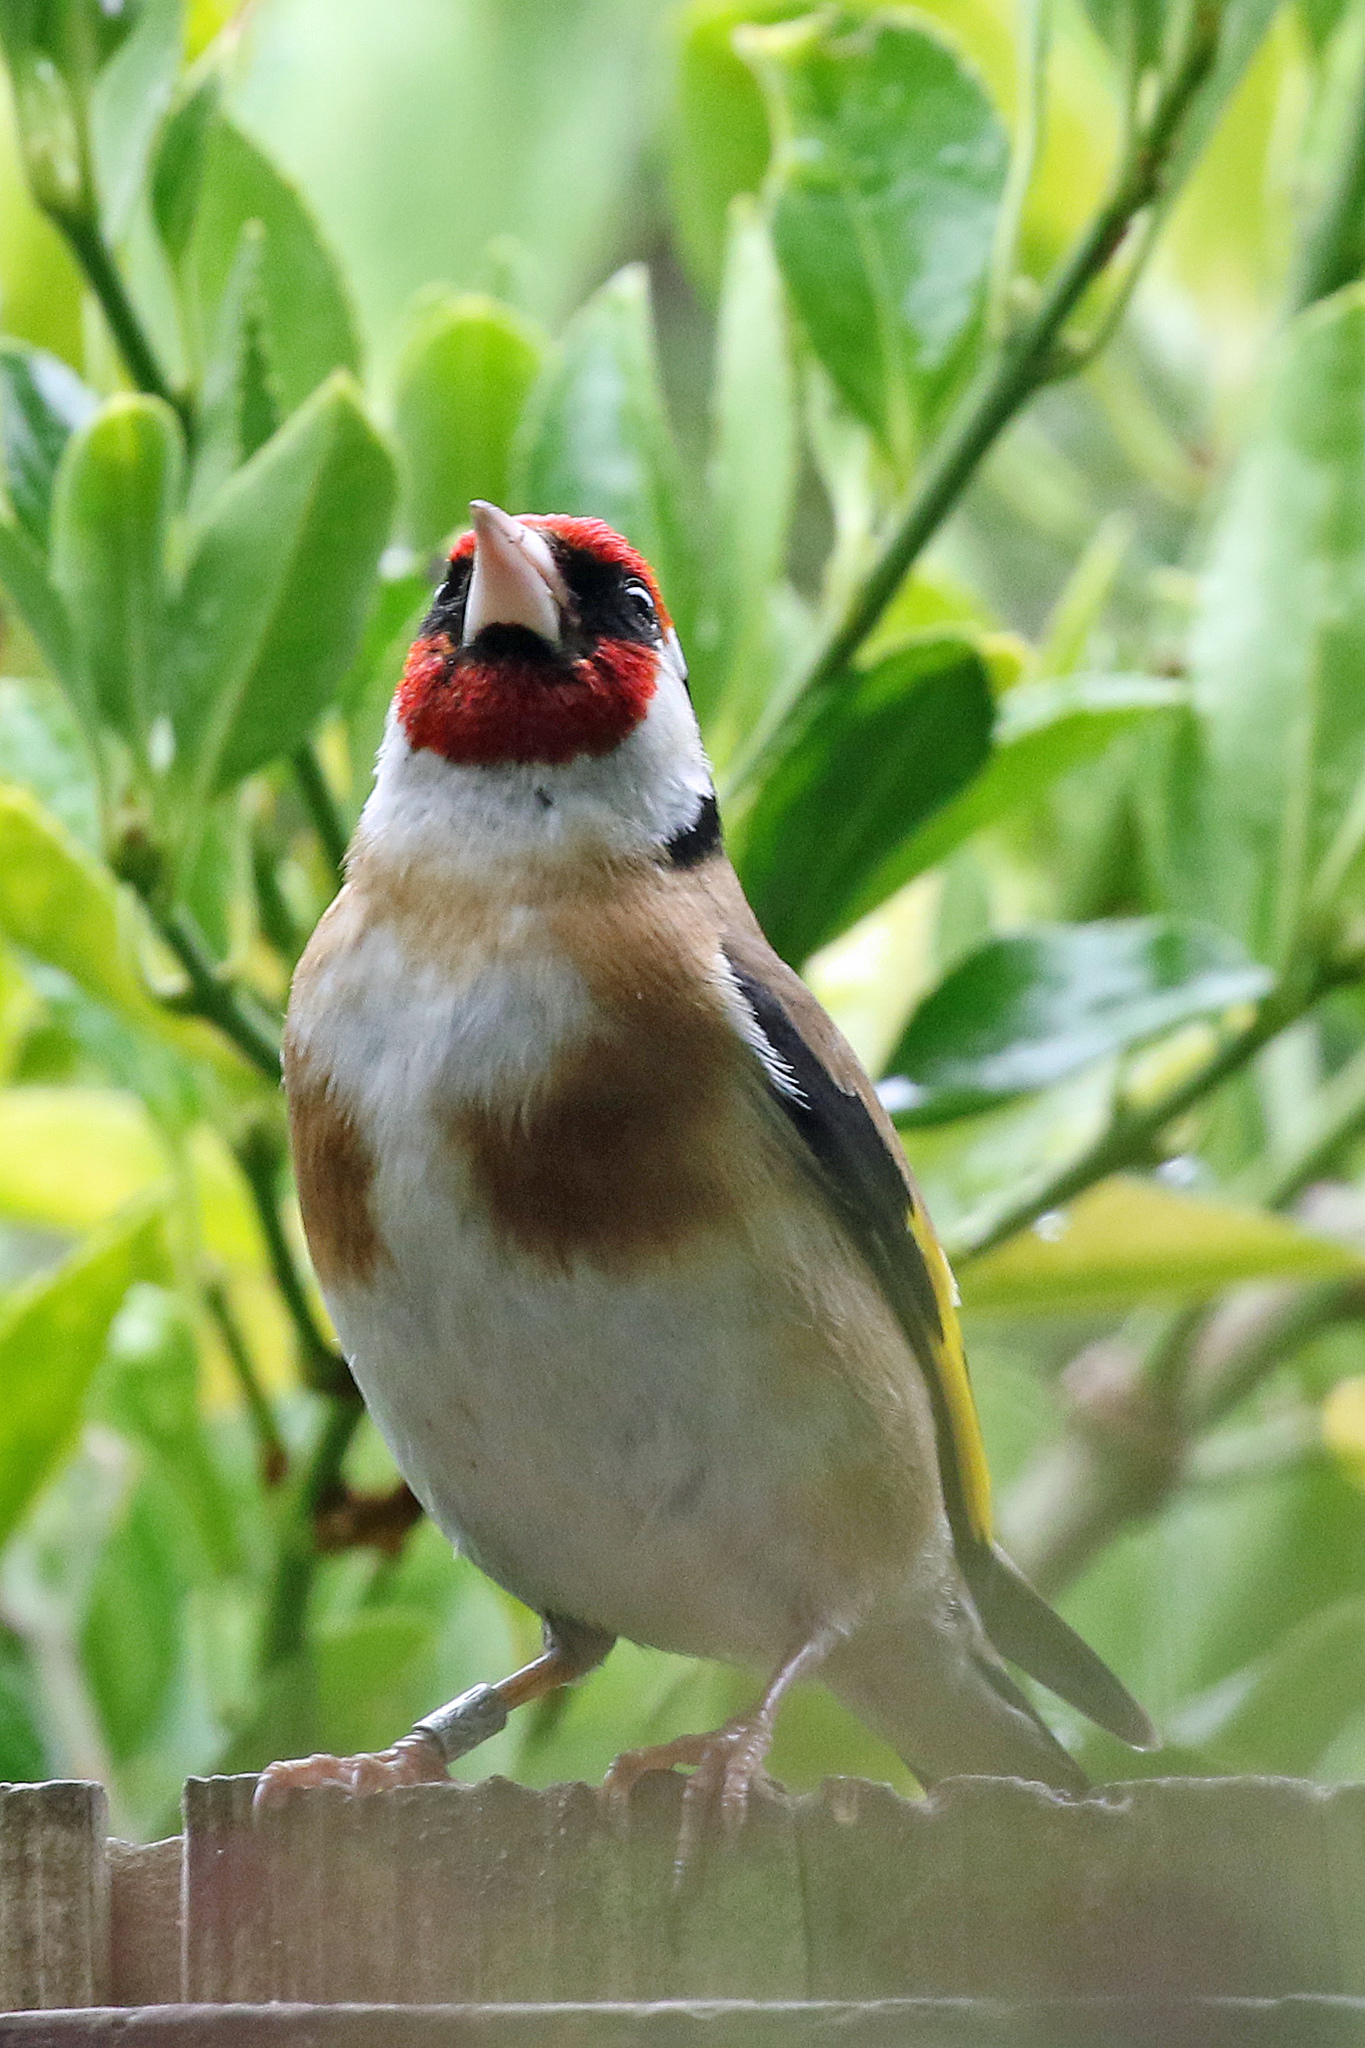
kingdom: Animalia
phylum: Chordata
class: Aves
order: Passeriformes
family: Fringillidae
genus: Carduelis
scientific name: Carduelis carduelis
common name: European goldfinch
